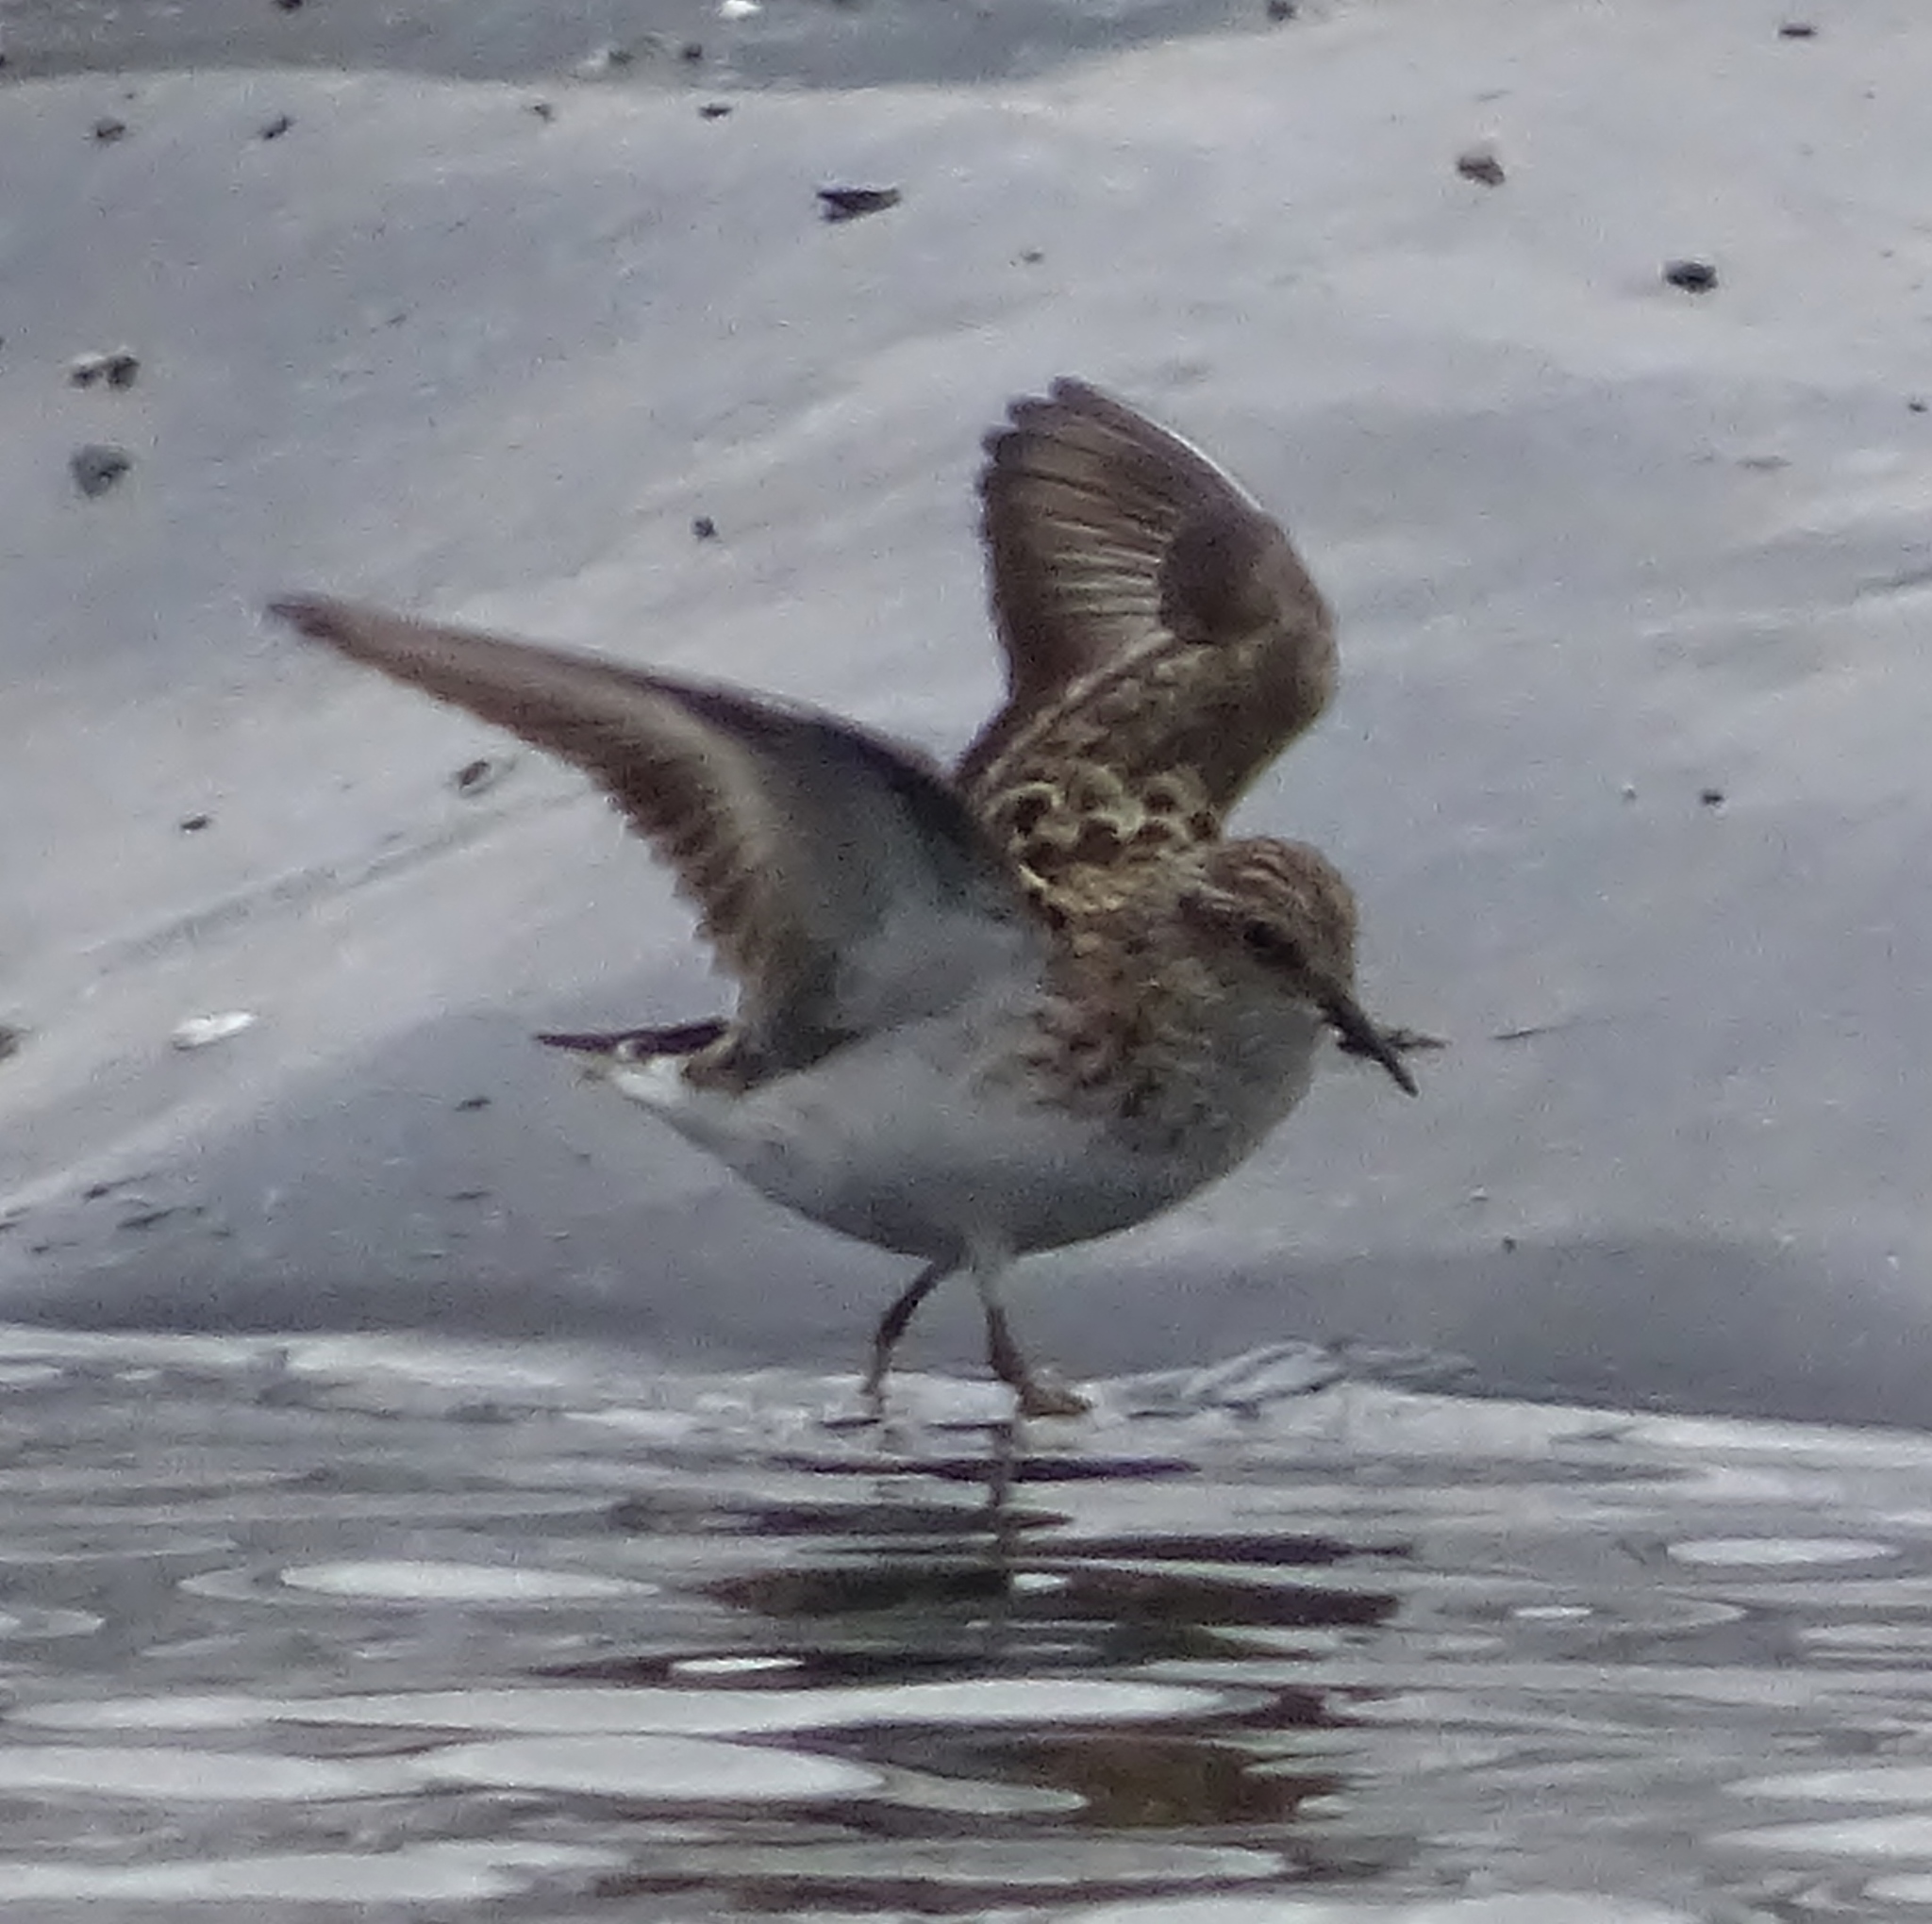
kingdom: Animalia
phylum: Chordata
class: Aves
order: Charadriiformes
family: Scolopacidae
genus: Calidris
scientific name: Calidris minutilla
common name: Least sandpiper
